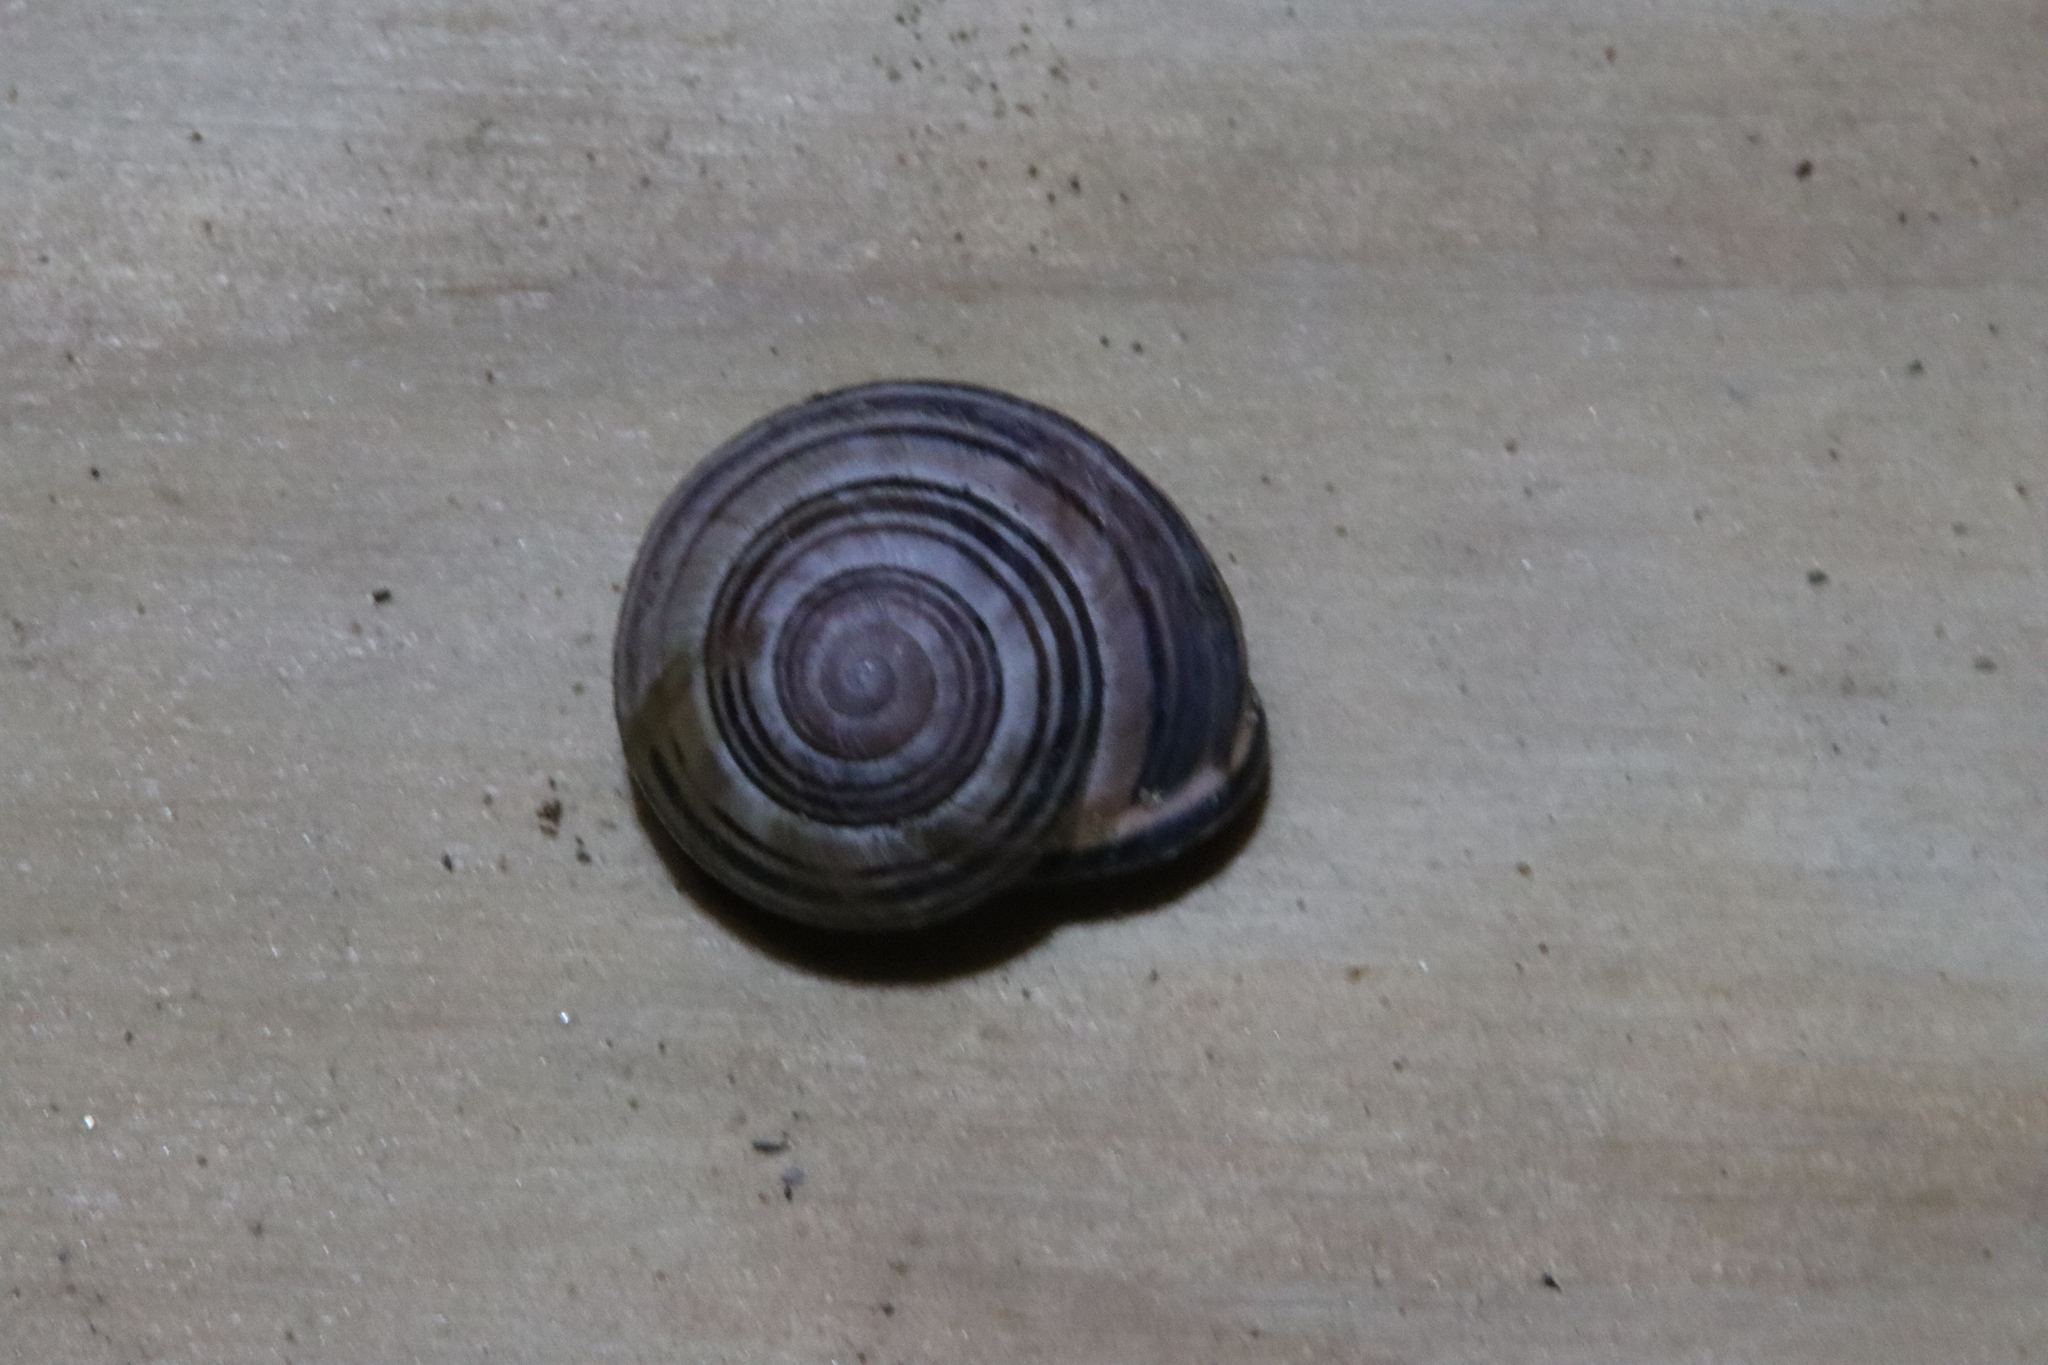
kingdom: Animalia
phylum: Mollusca
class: Gastropoda
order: Stylommatophora
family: Helicidae
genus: Cepaea
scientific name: Cepaea nemoralis
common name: Grovesnail
